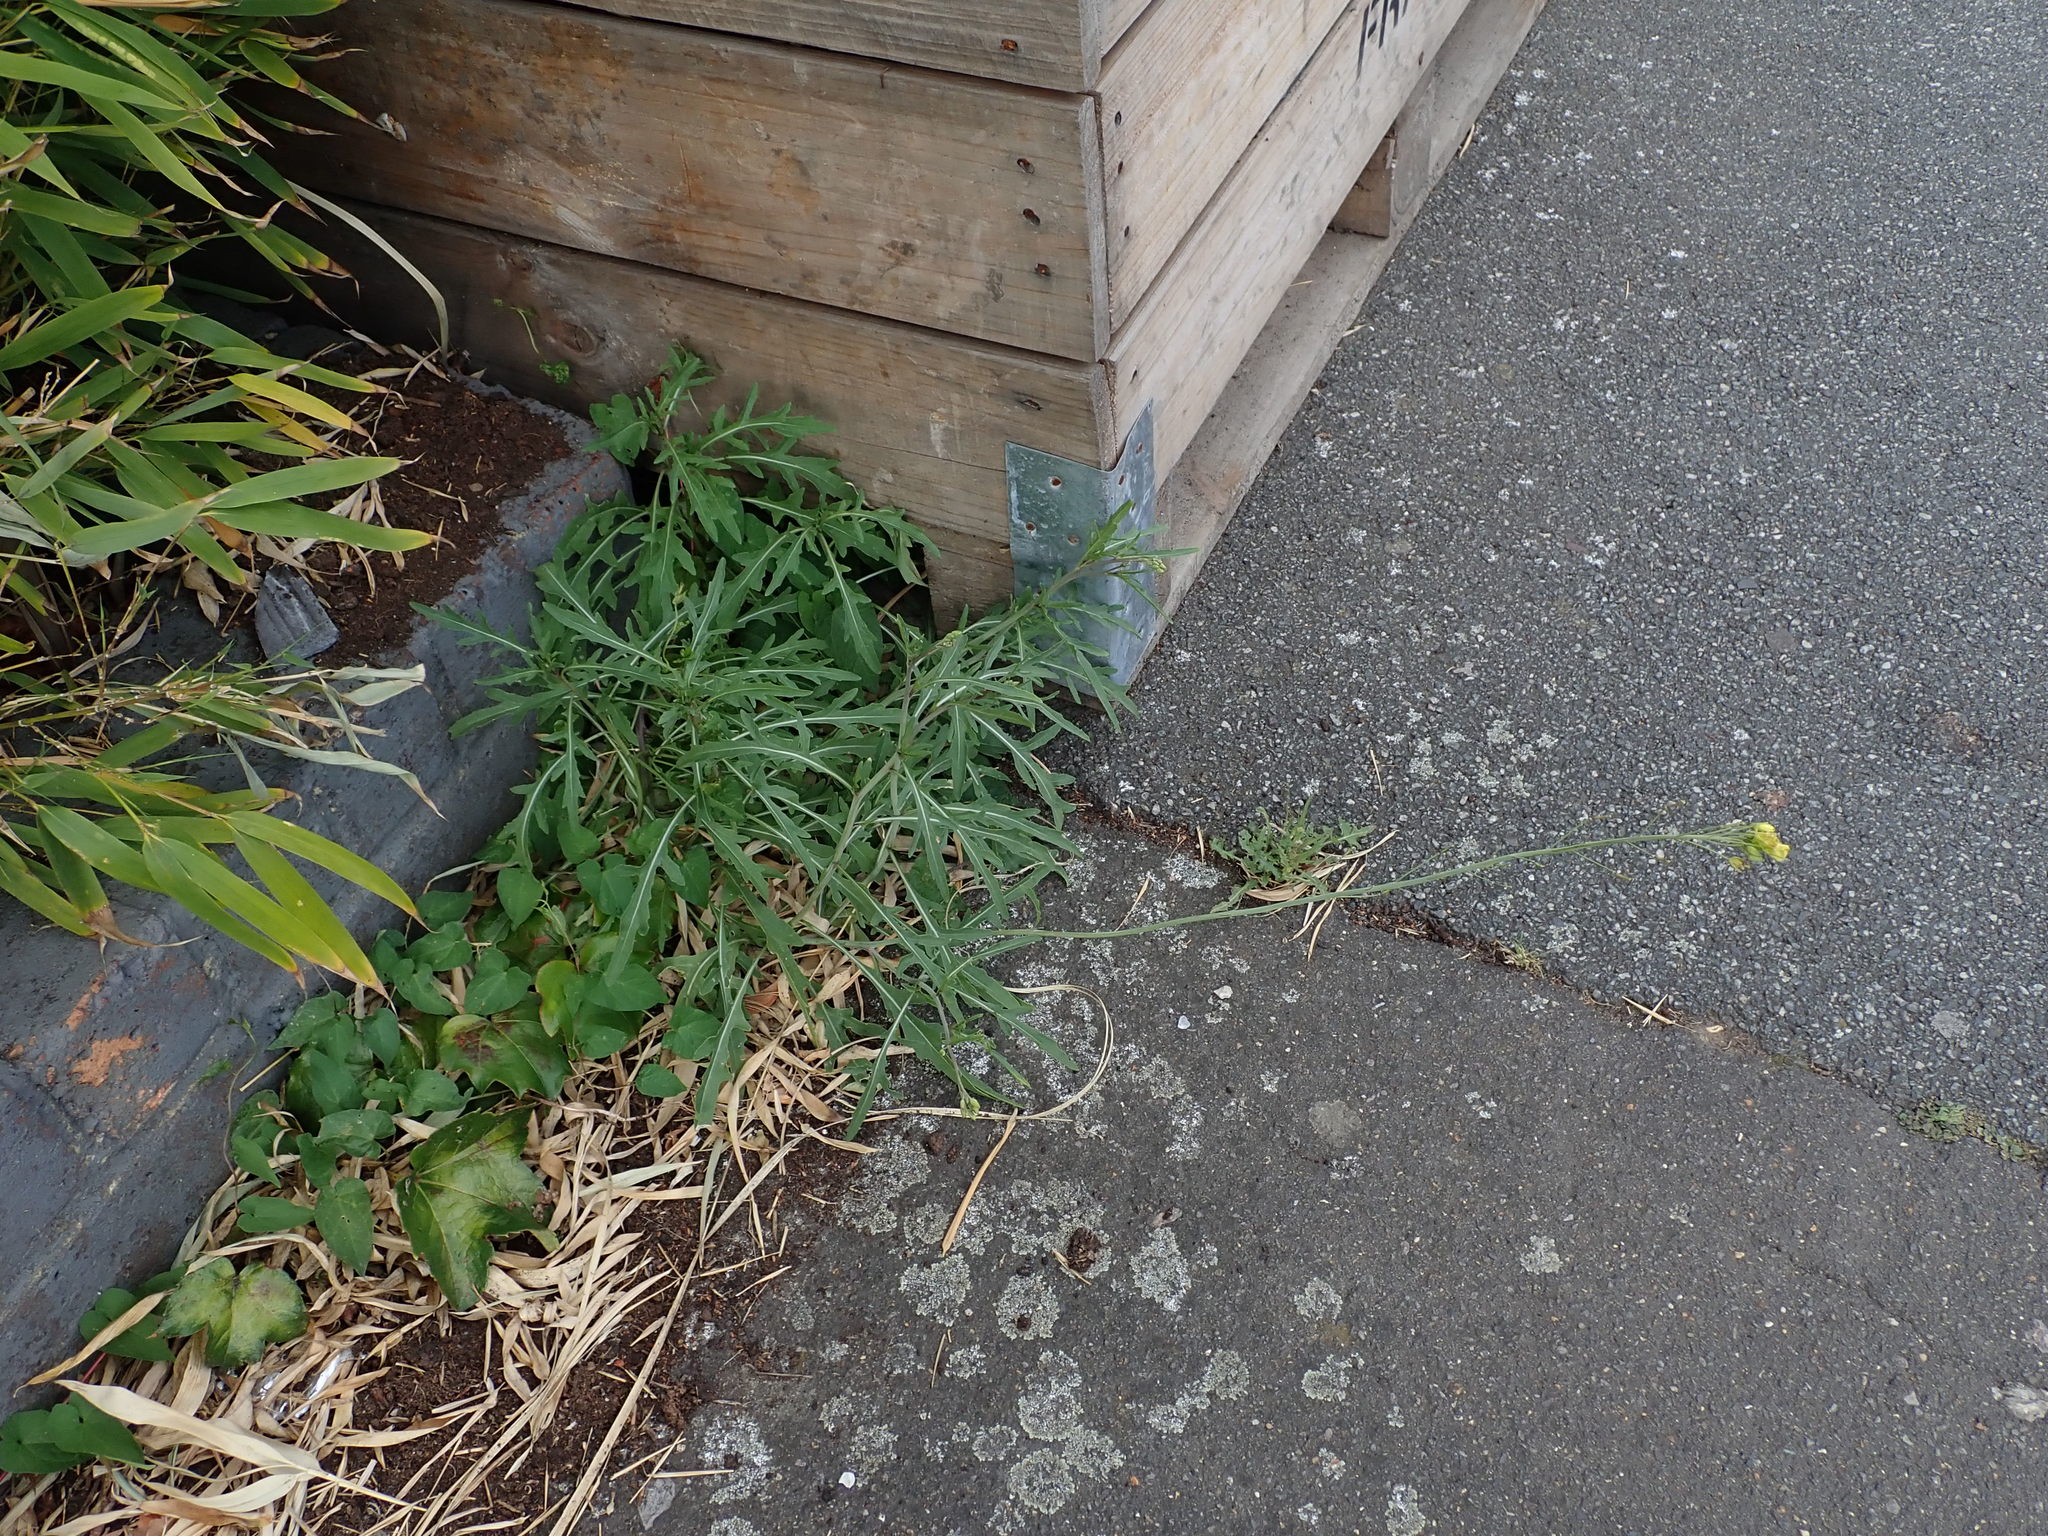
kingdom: Plantae
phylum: Tracheophyta
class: Magnoliopsida
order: Brassicales
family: Brassicaceae
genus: Diplotaxis
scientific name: Diplotaxis tenuifolia
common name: Perennial wall-rocket
